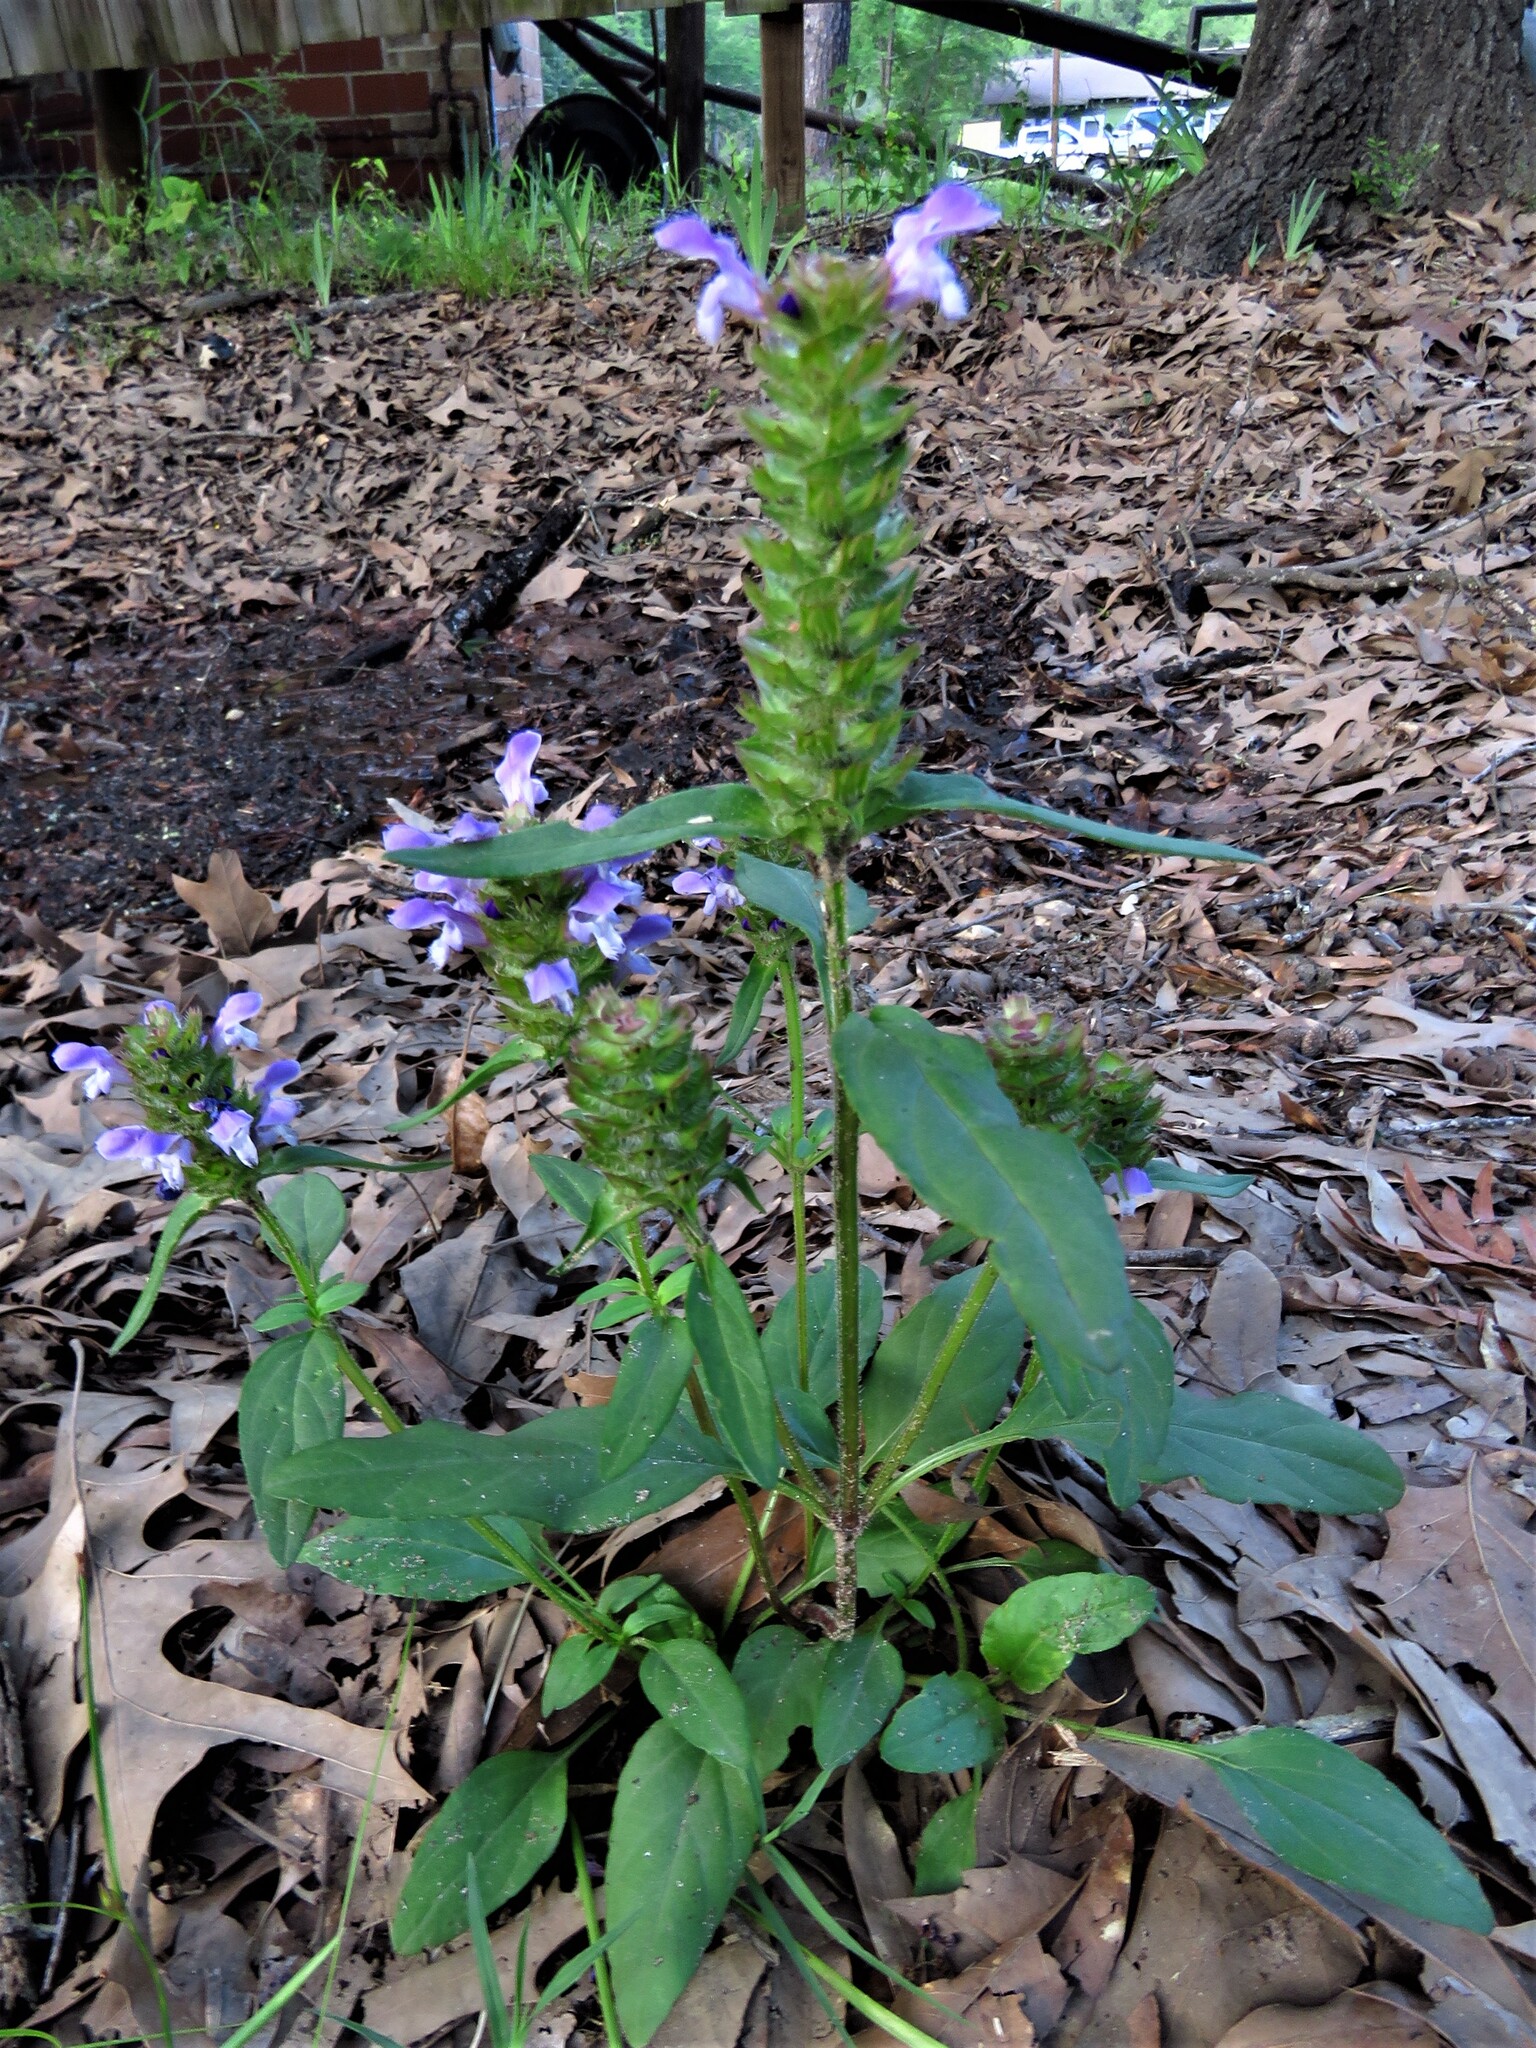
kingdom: Plantae
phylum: Tracheophyta
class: Magnoliopsida
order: Lamiales
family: Lamiaceae
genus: Prunella
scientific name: Prunella vulgaris
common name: Heal-all
